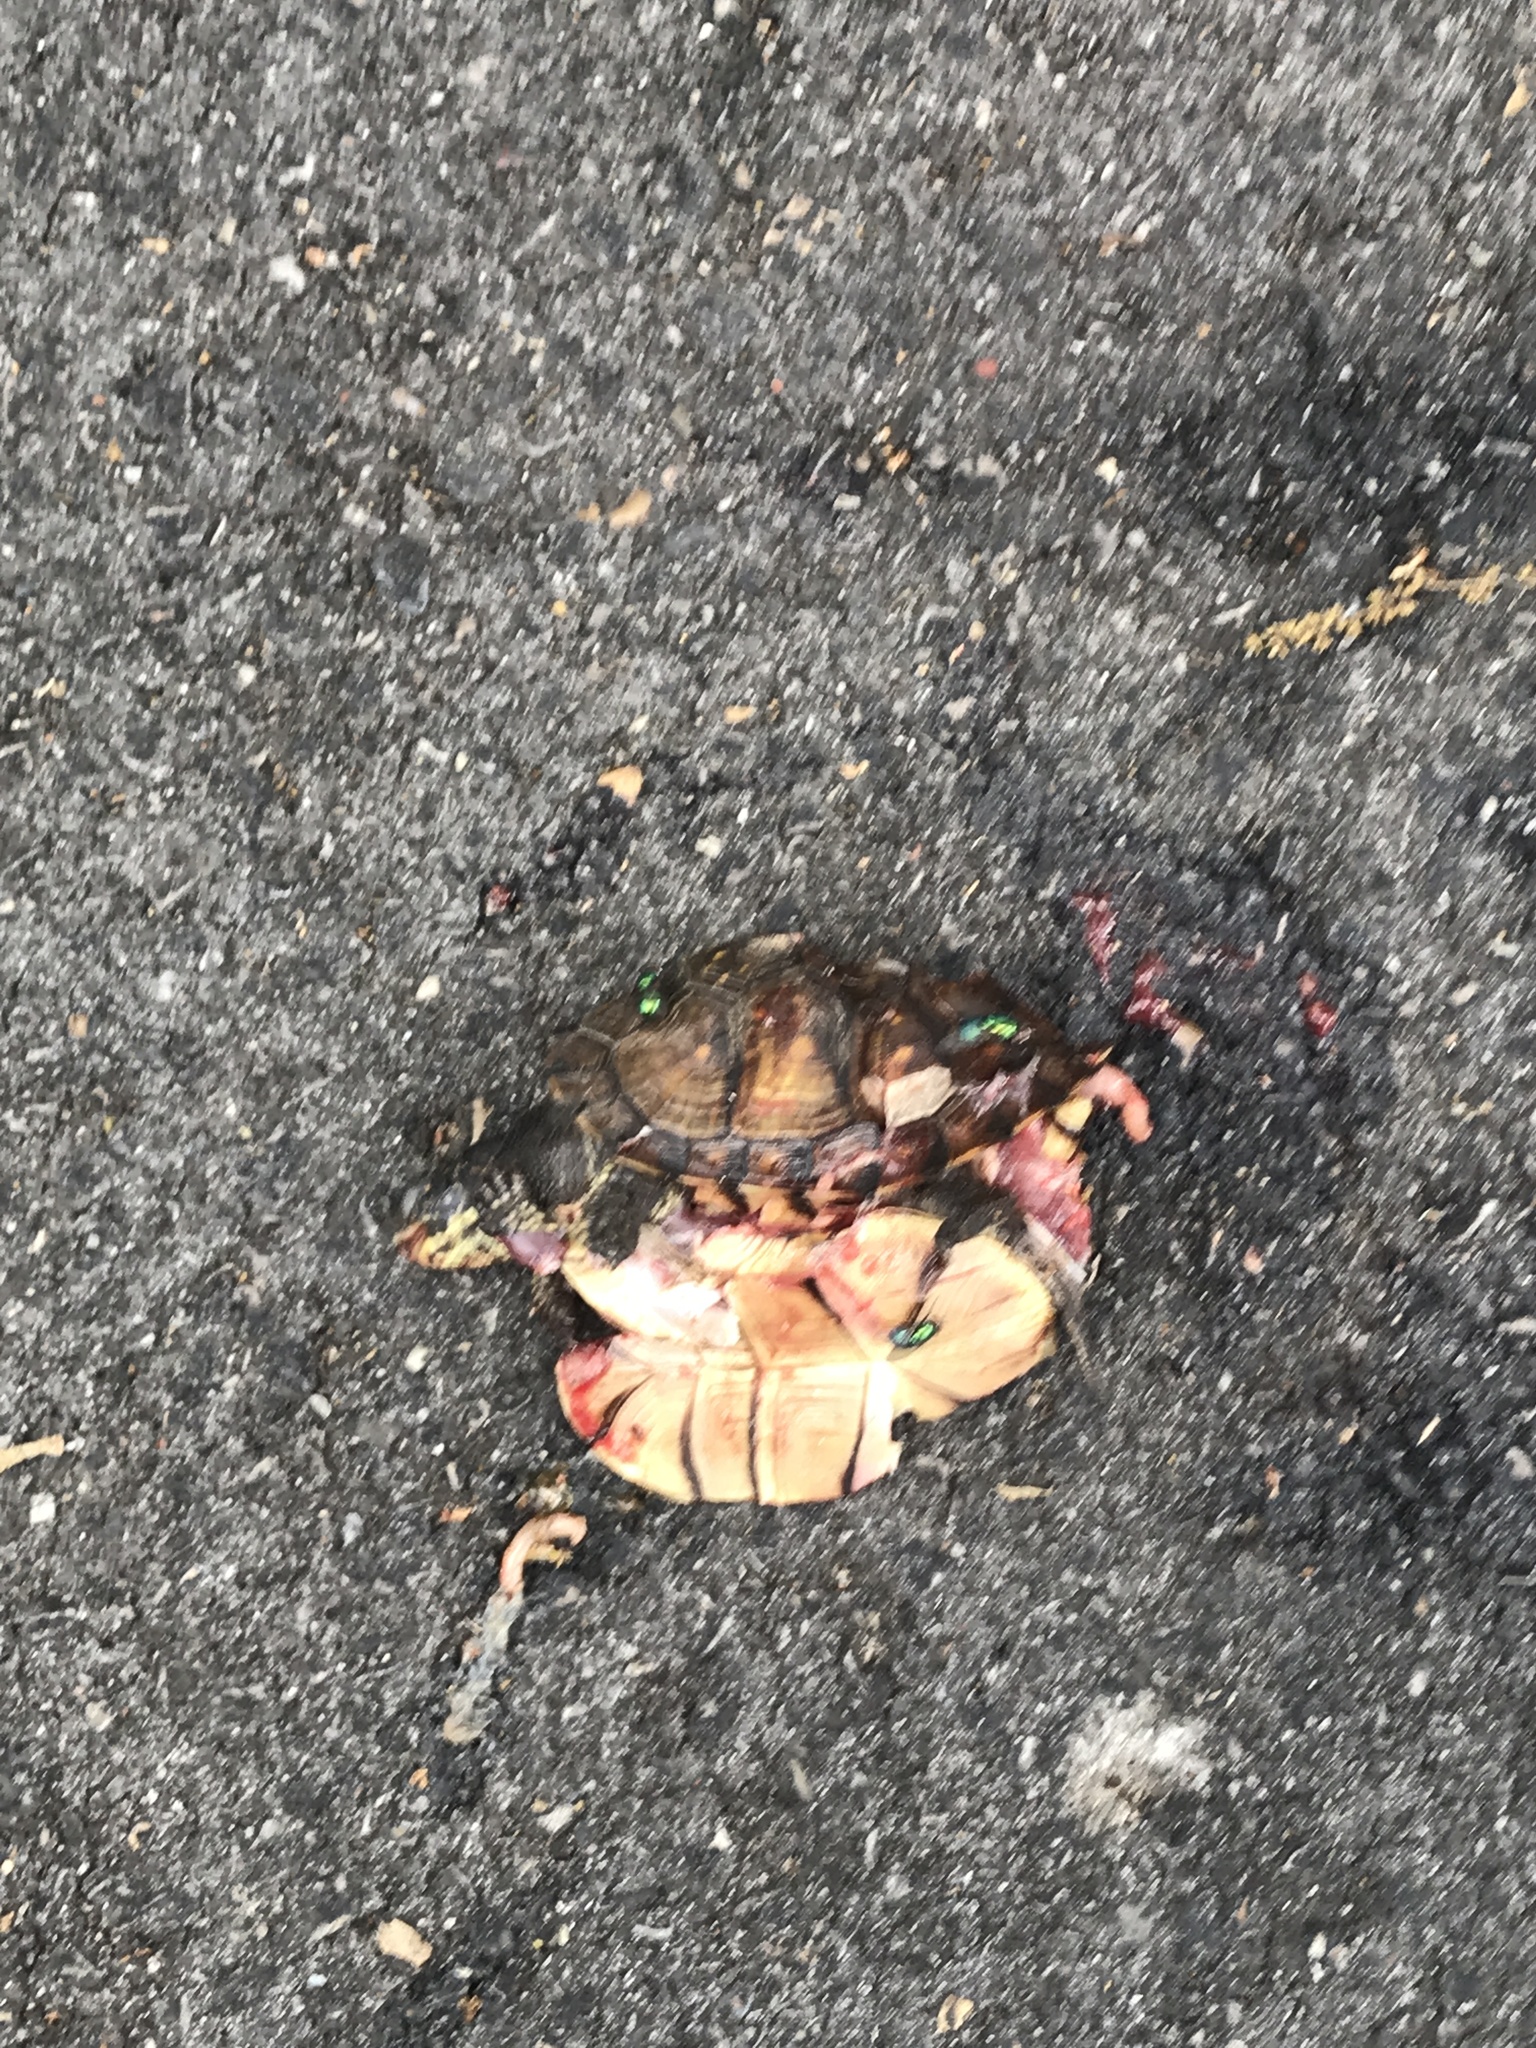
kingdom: Animalia
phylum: Chordata
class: Testudines
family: Emydidae
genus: Terrapene
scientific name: Terrapene carolina
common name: Common box turtle
